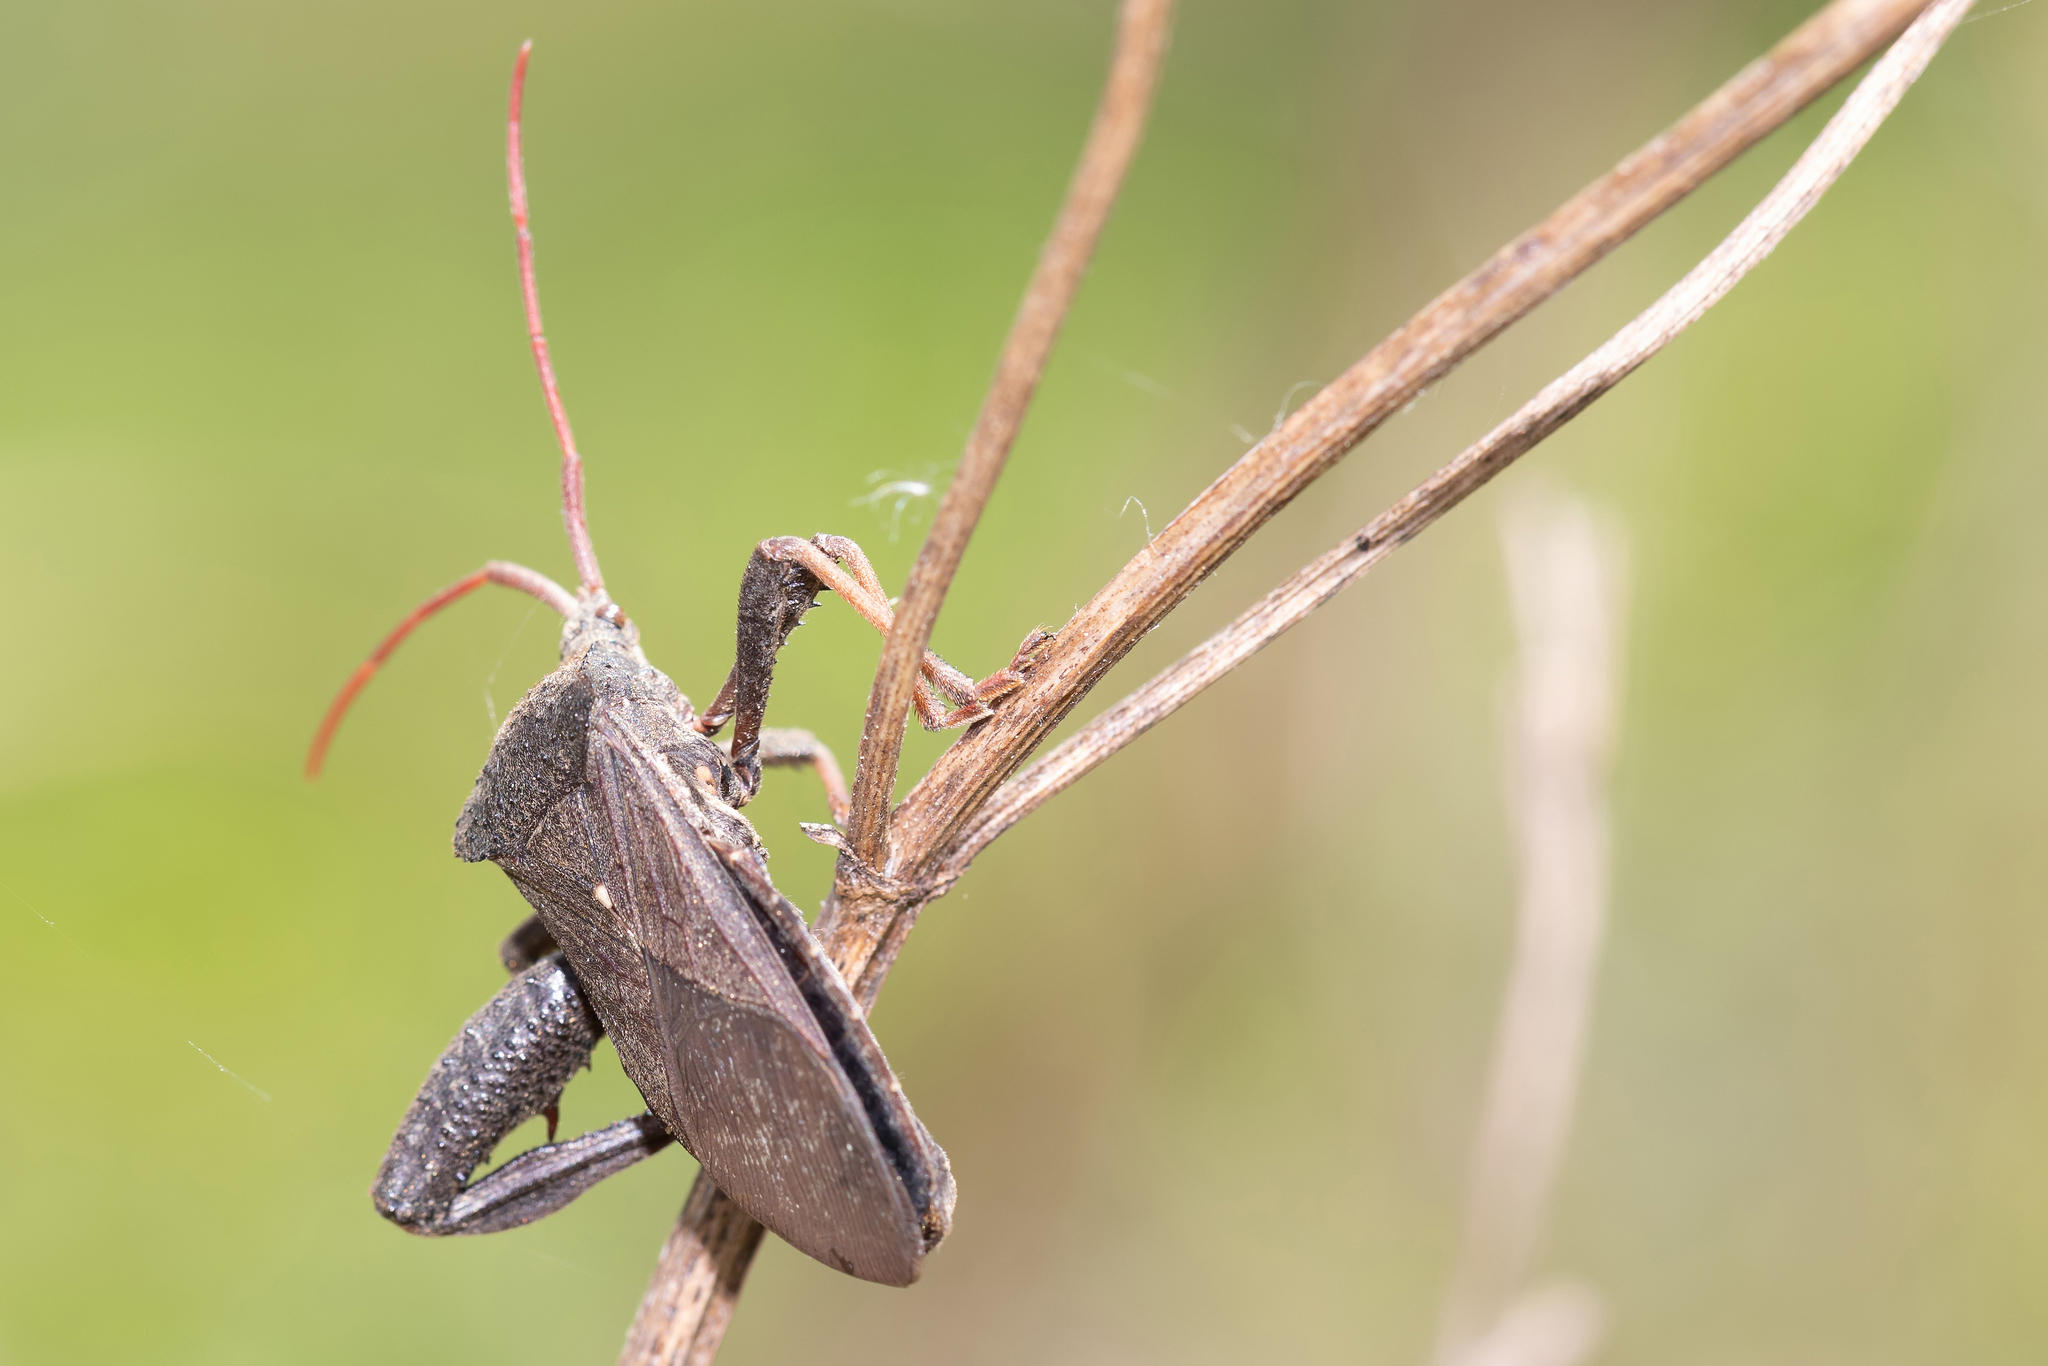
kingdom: Animalia
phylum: Arthropoda
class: Insecta
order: Hemiptera
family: Coreidae
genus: Acanthocephala
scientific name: Acanthocephala femorata
